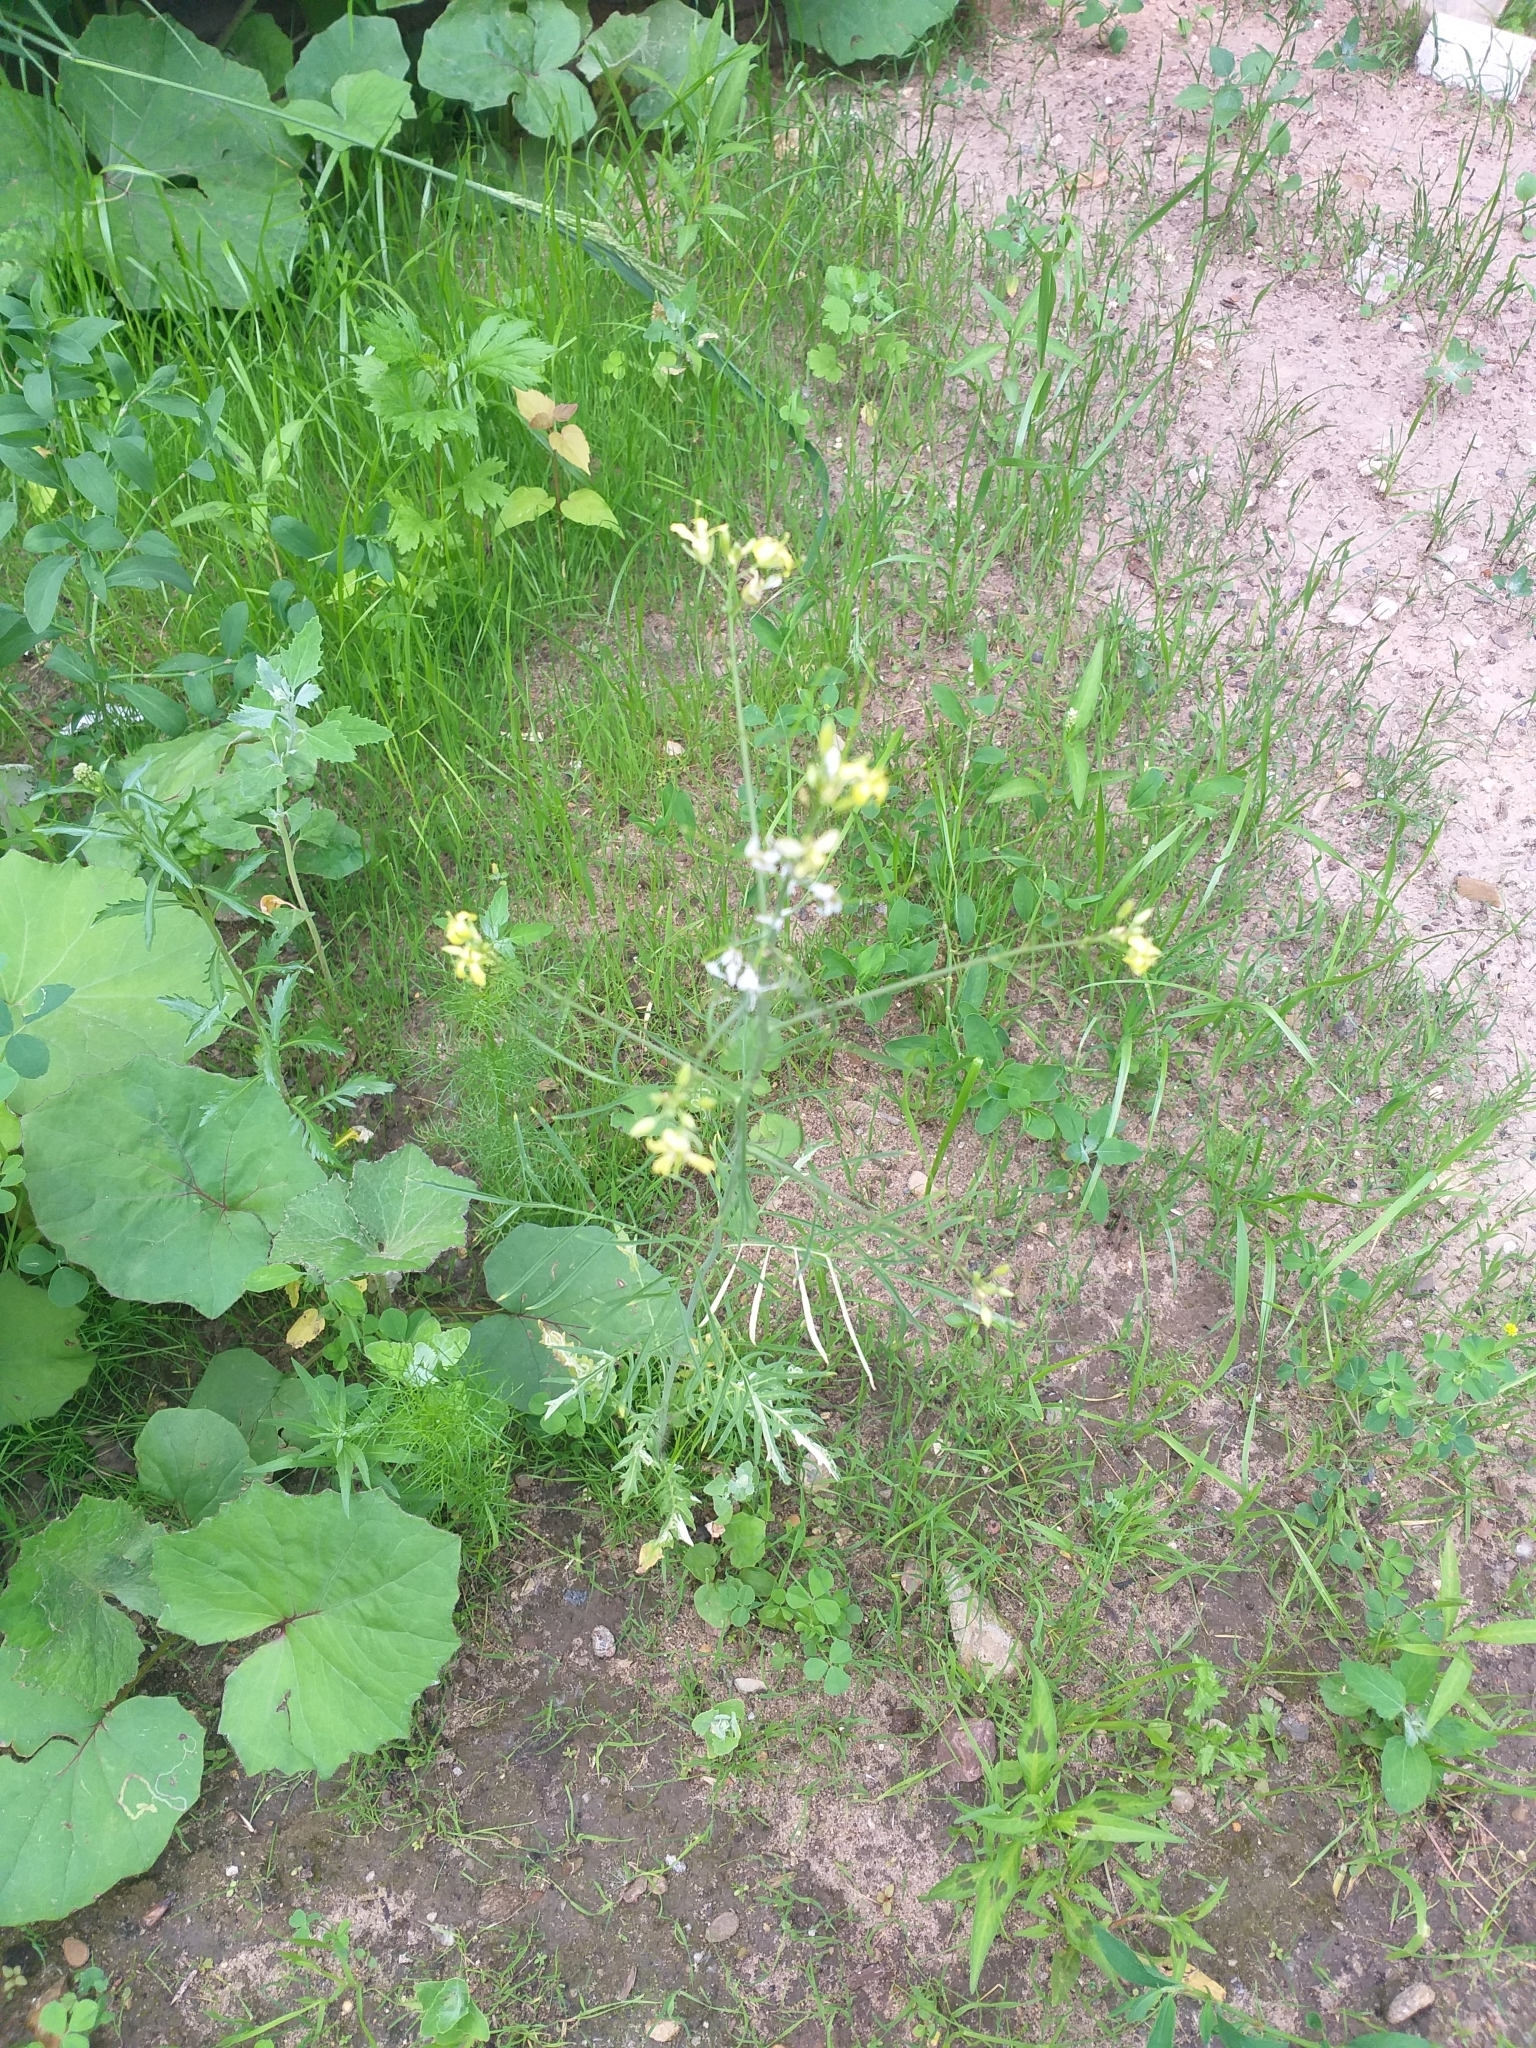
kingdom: Plantae
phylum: Tracheophyta
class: Magnoliopsida
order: Brassicales
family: Brassicaceae
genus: Sisymbrium
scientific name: Sisymbrium altissimum
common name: Tall rocket
